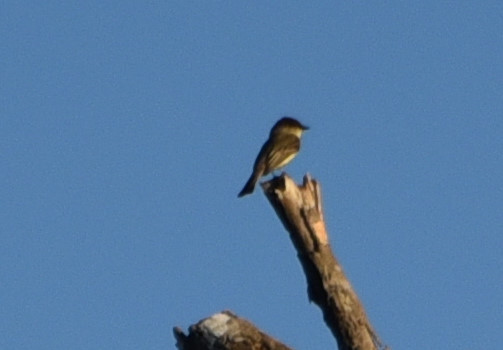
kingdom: Animalia
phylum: Chordata
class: Aves
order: Passeriformes
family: Tyrannidae
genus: Sayornis
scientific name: Sayornis phoebe
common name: Eastern phoebe
